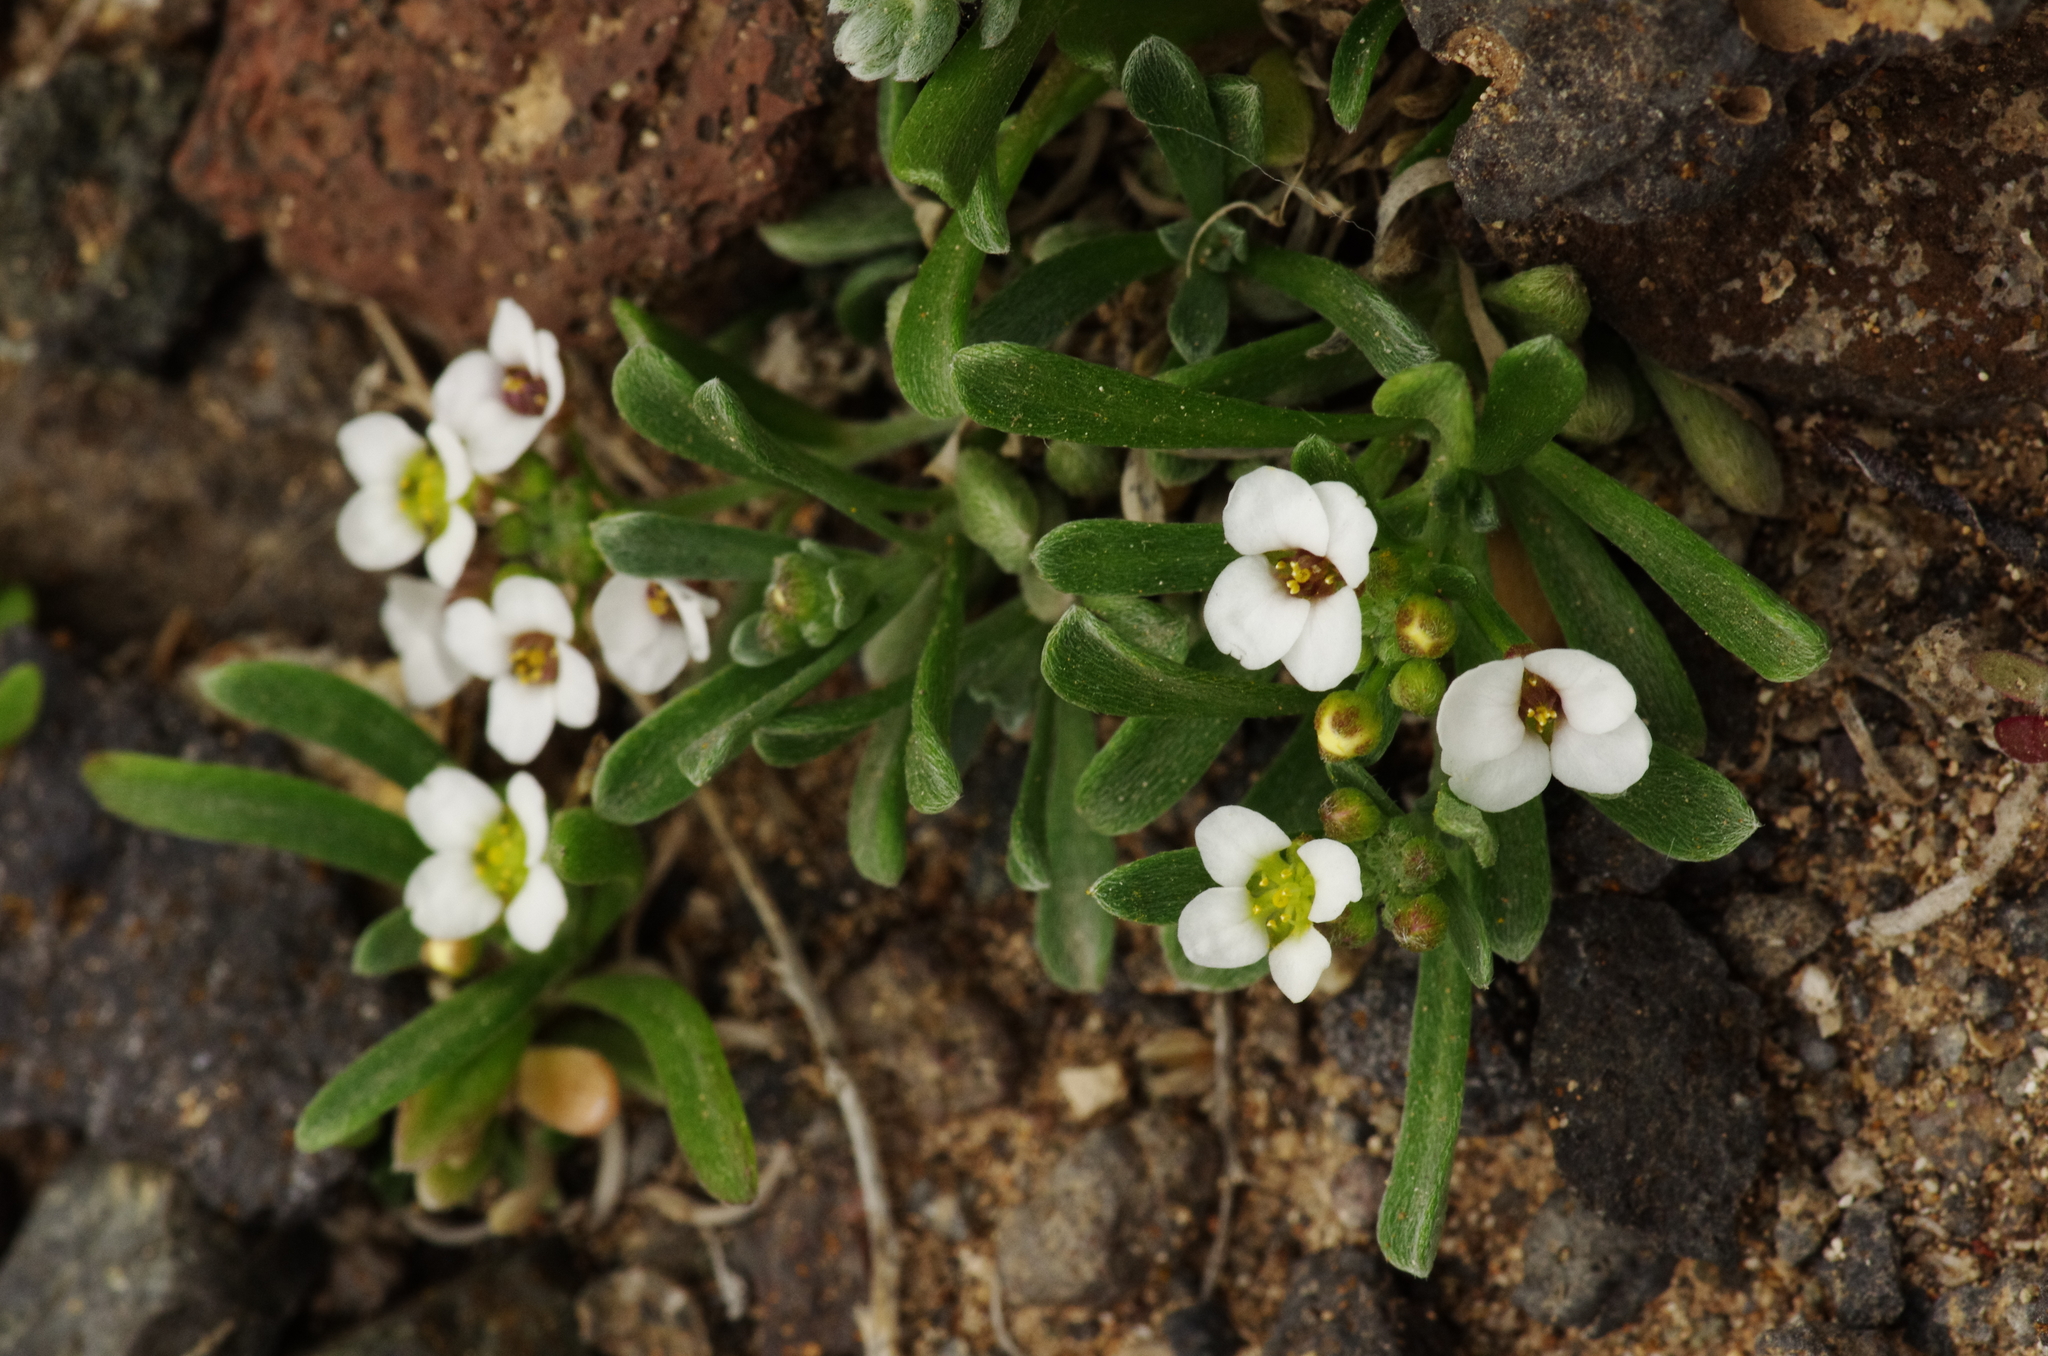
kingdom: Plantae
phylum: Tracheophyta
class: Magnoliopsida
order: Brassicales
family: Brassicaceae
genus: Lobularia
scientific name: Lobularia canariensis
